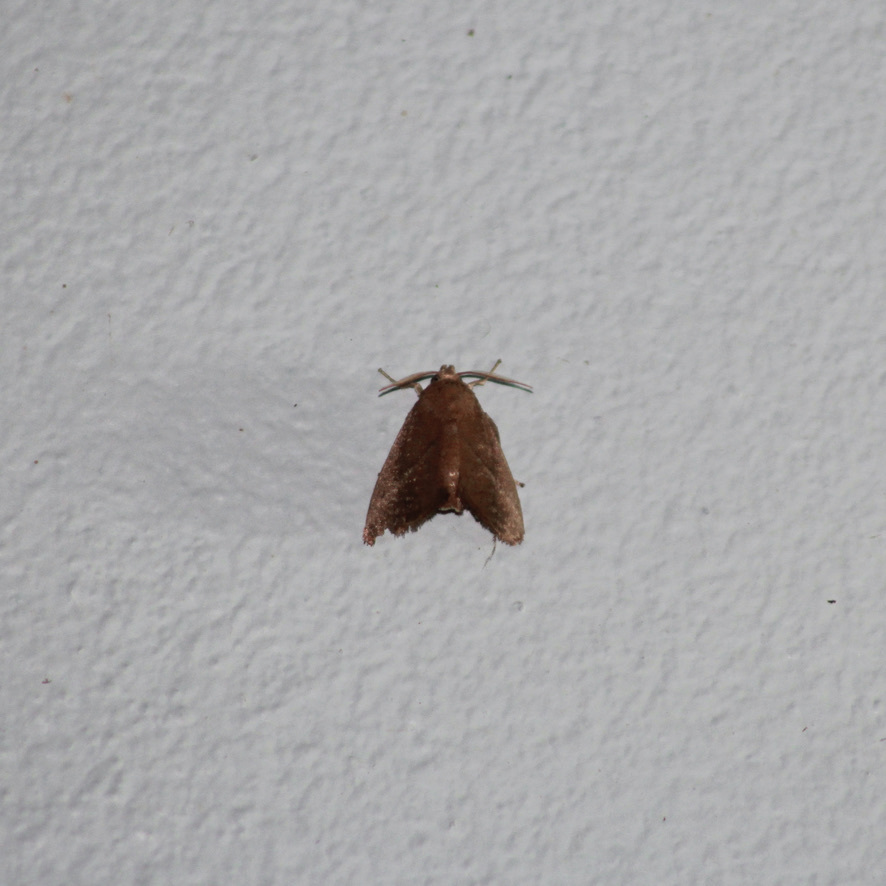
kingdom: Animalia
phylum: Arthropoda
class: Insecta
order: Lepidoptera
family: Limacodidae
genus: Epiclea
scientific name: Epiclea elaea
